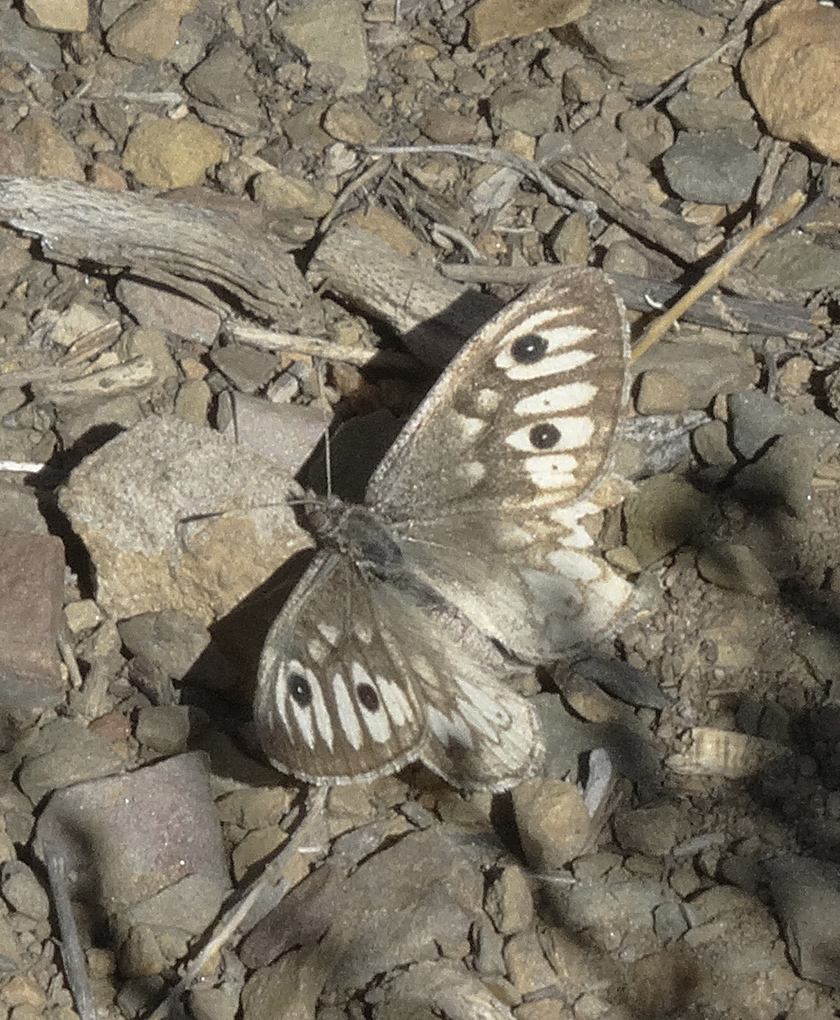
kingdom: Animalia
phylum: Arthropoda
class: Insecta
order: Lepidoptera
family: Nymphalidae
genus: Neominois
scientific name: Neominois ridingsii
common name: Ridings' satyr
